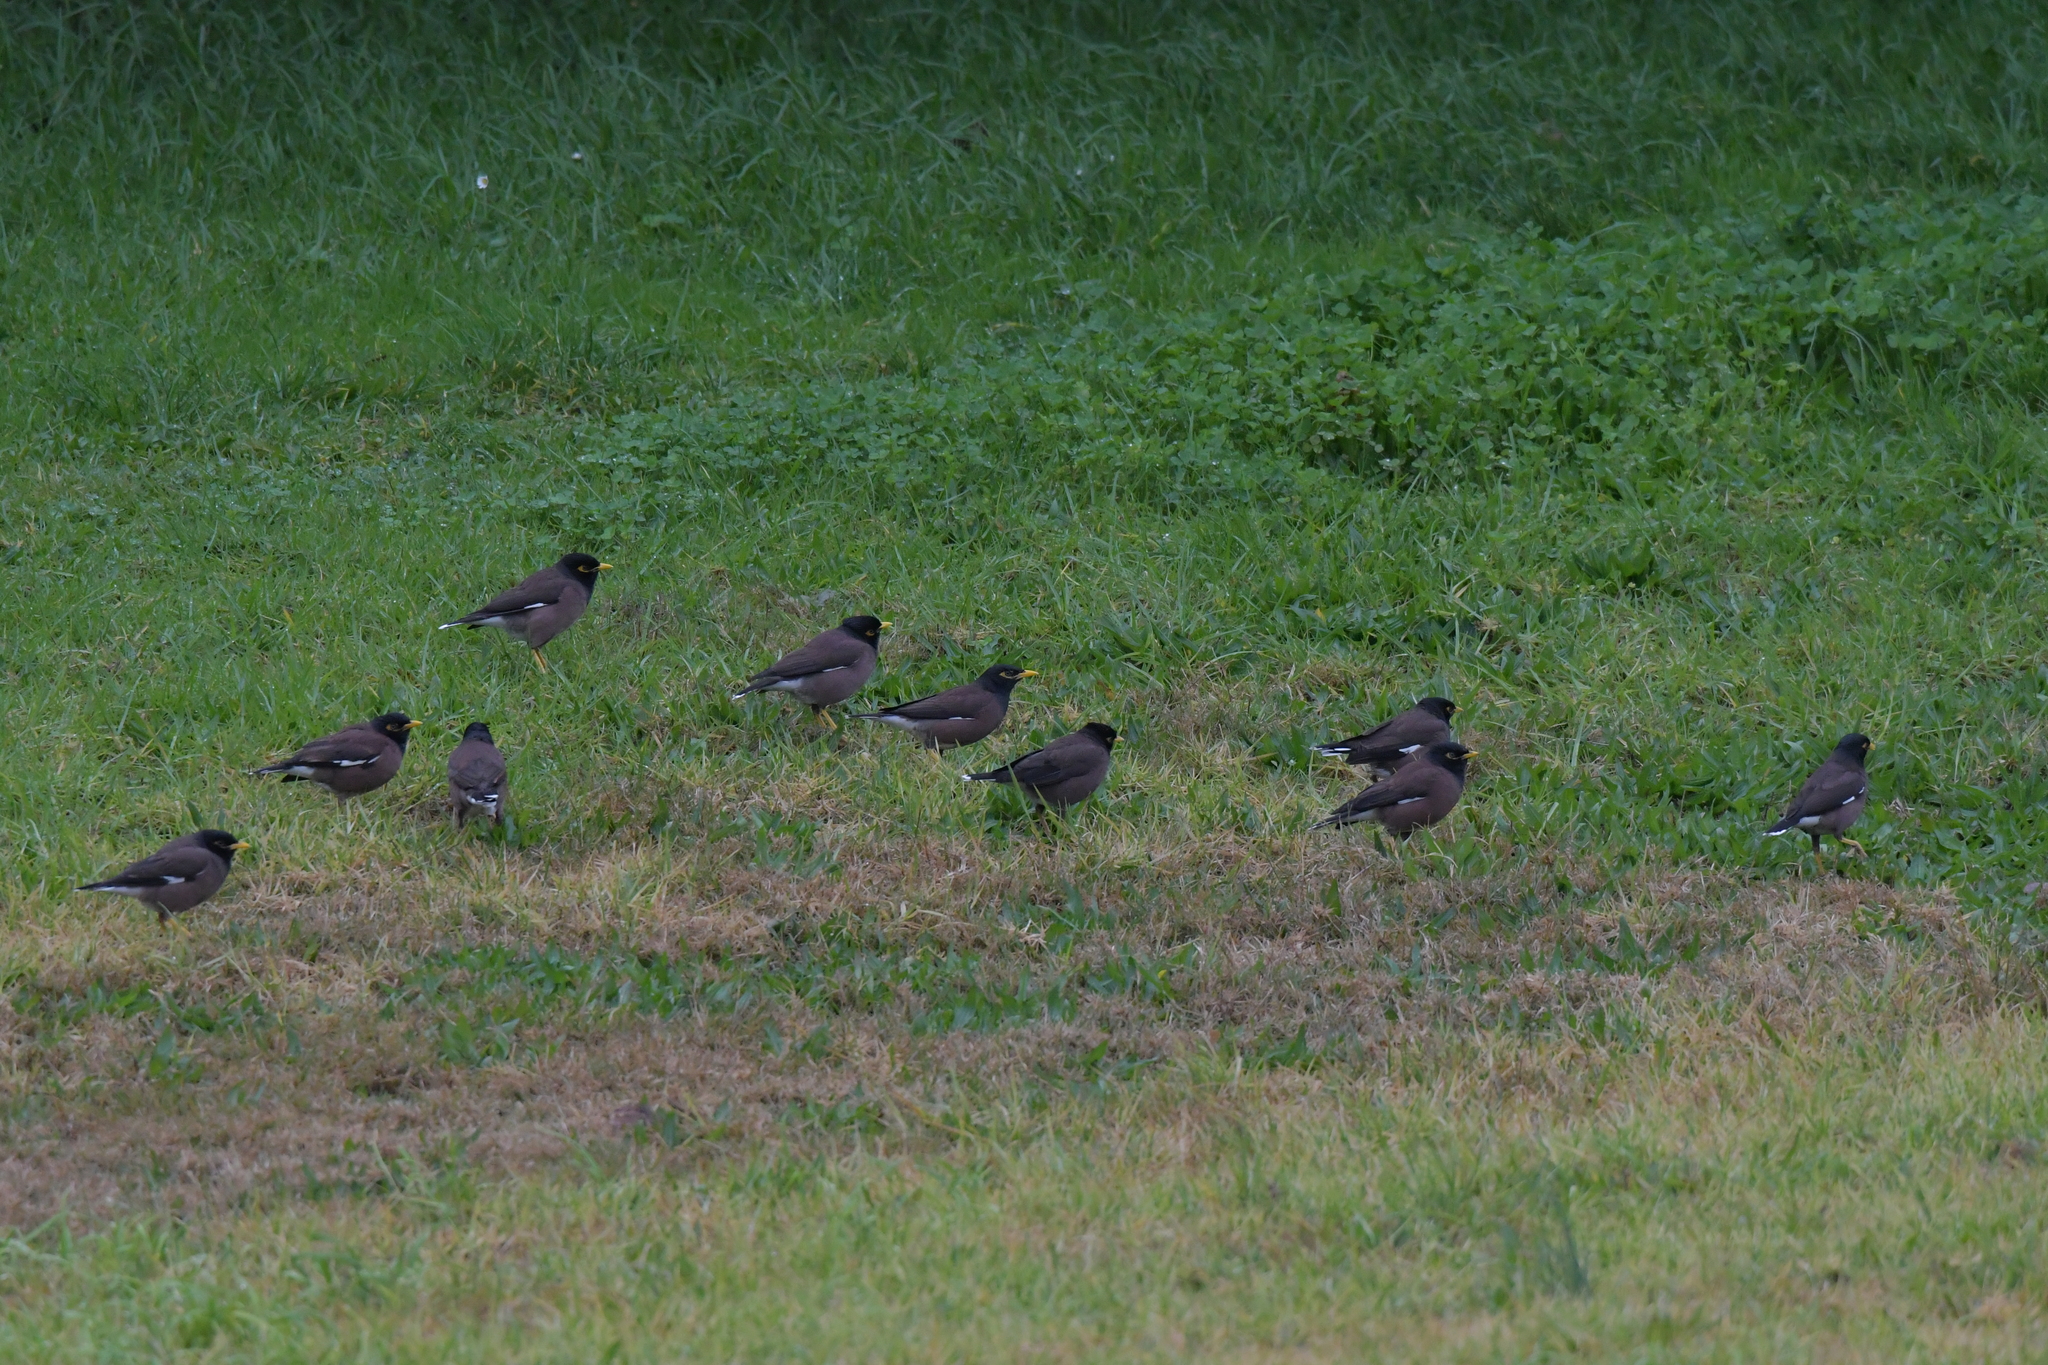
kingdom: Animalia
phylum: Chordata
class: Aves
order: Passeriformes
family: Sturnidae
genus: Acridotheres
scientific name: Acridotheres tristis
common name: Common myna
